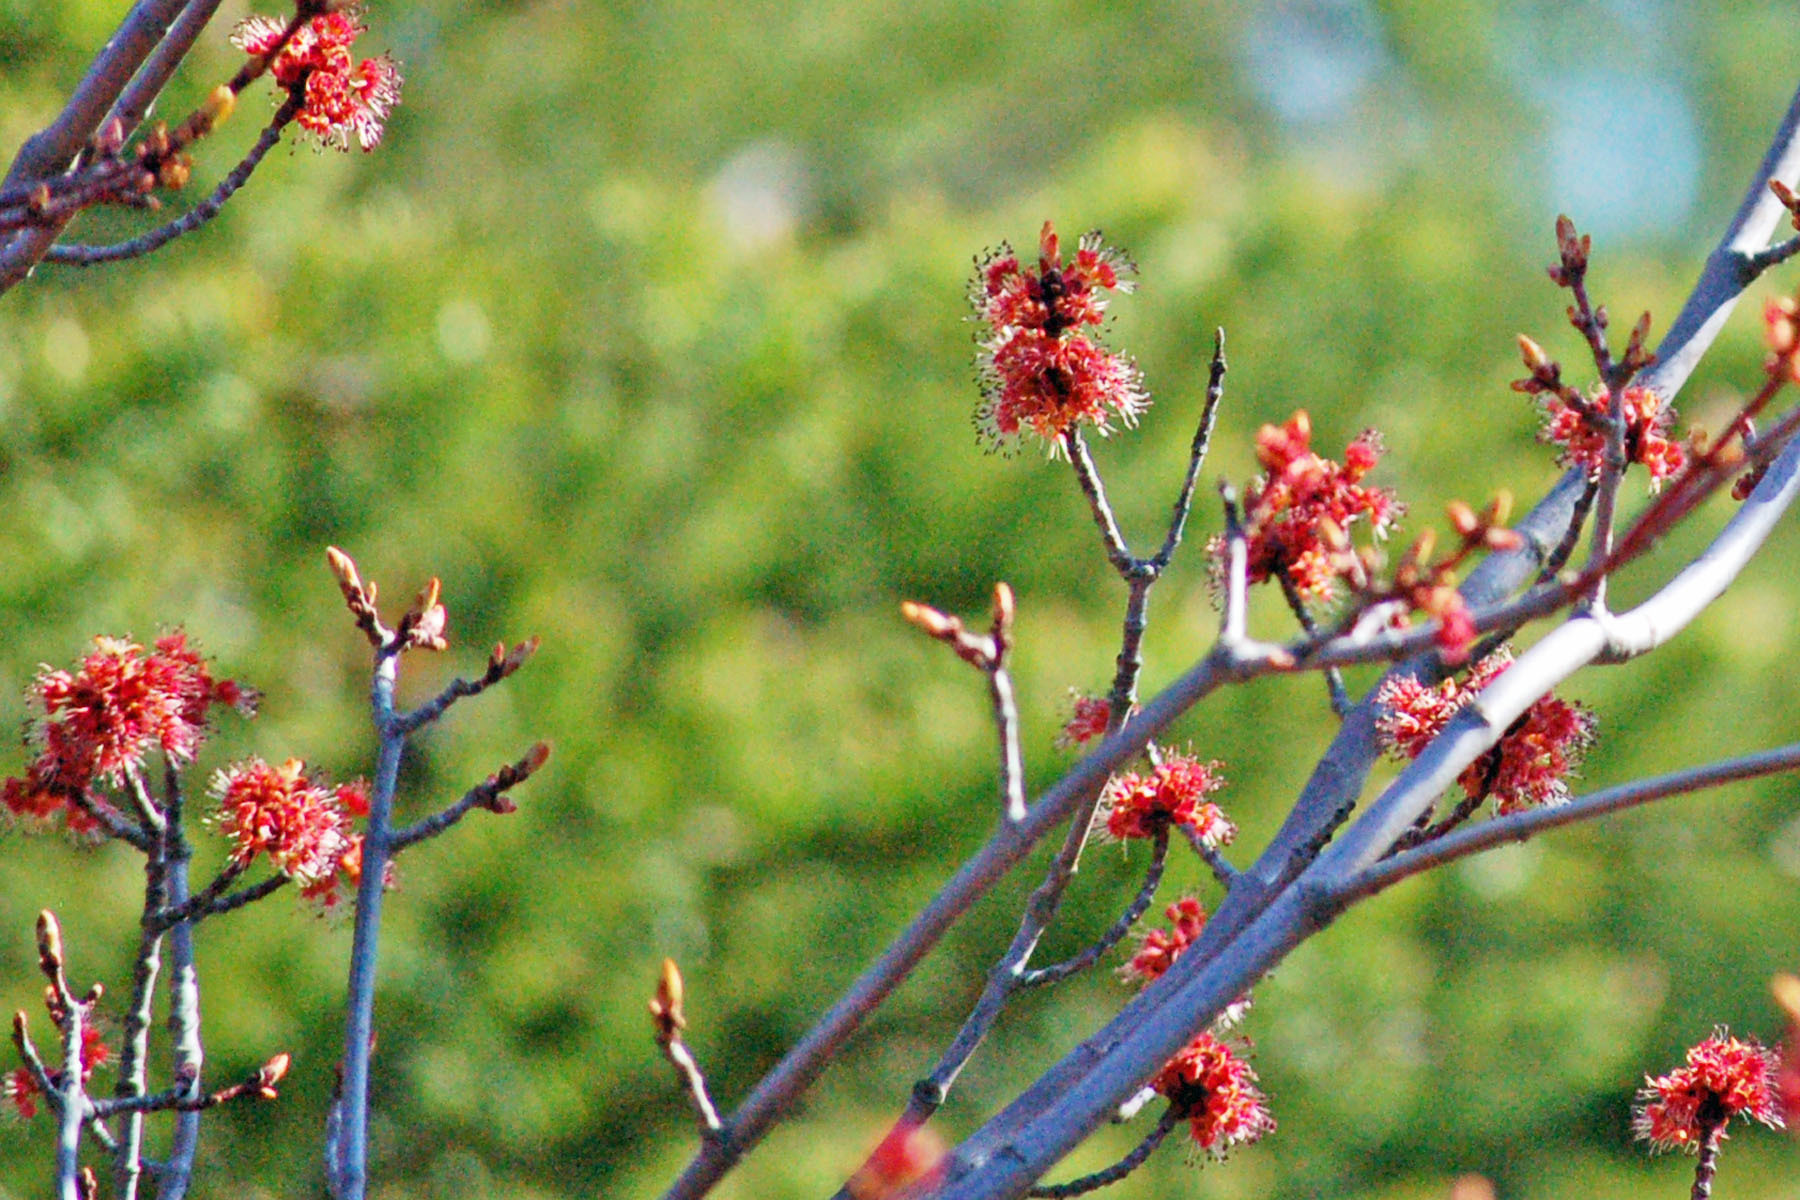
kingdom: Plantae
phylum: Tracheophyta
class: Magnoliopsida
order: Sapindales
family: Sapindaceae
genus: Acer
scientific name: Acer rubrum
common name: Red maple
